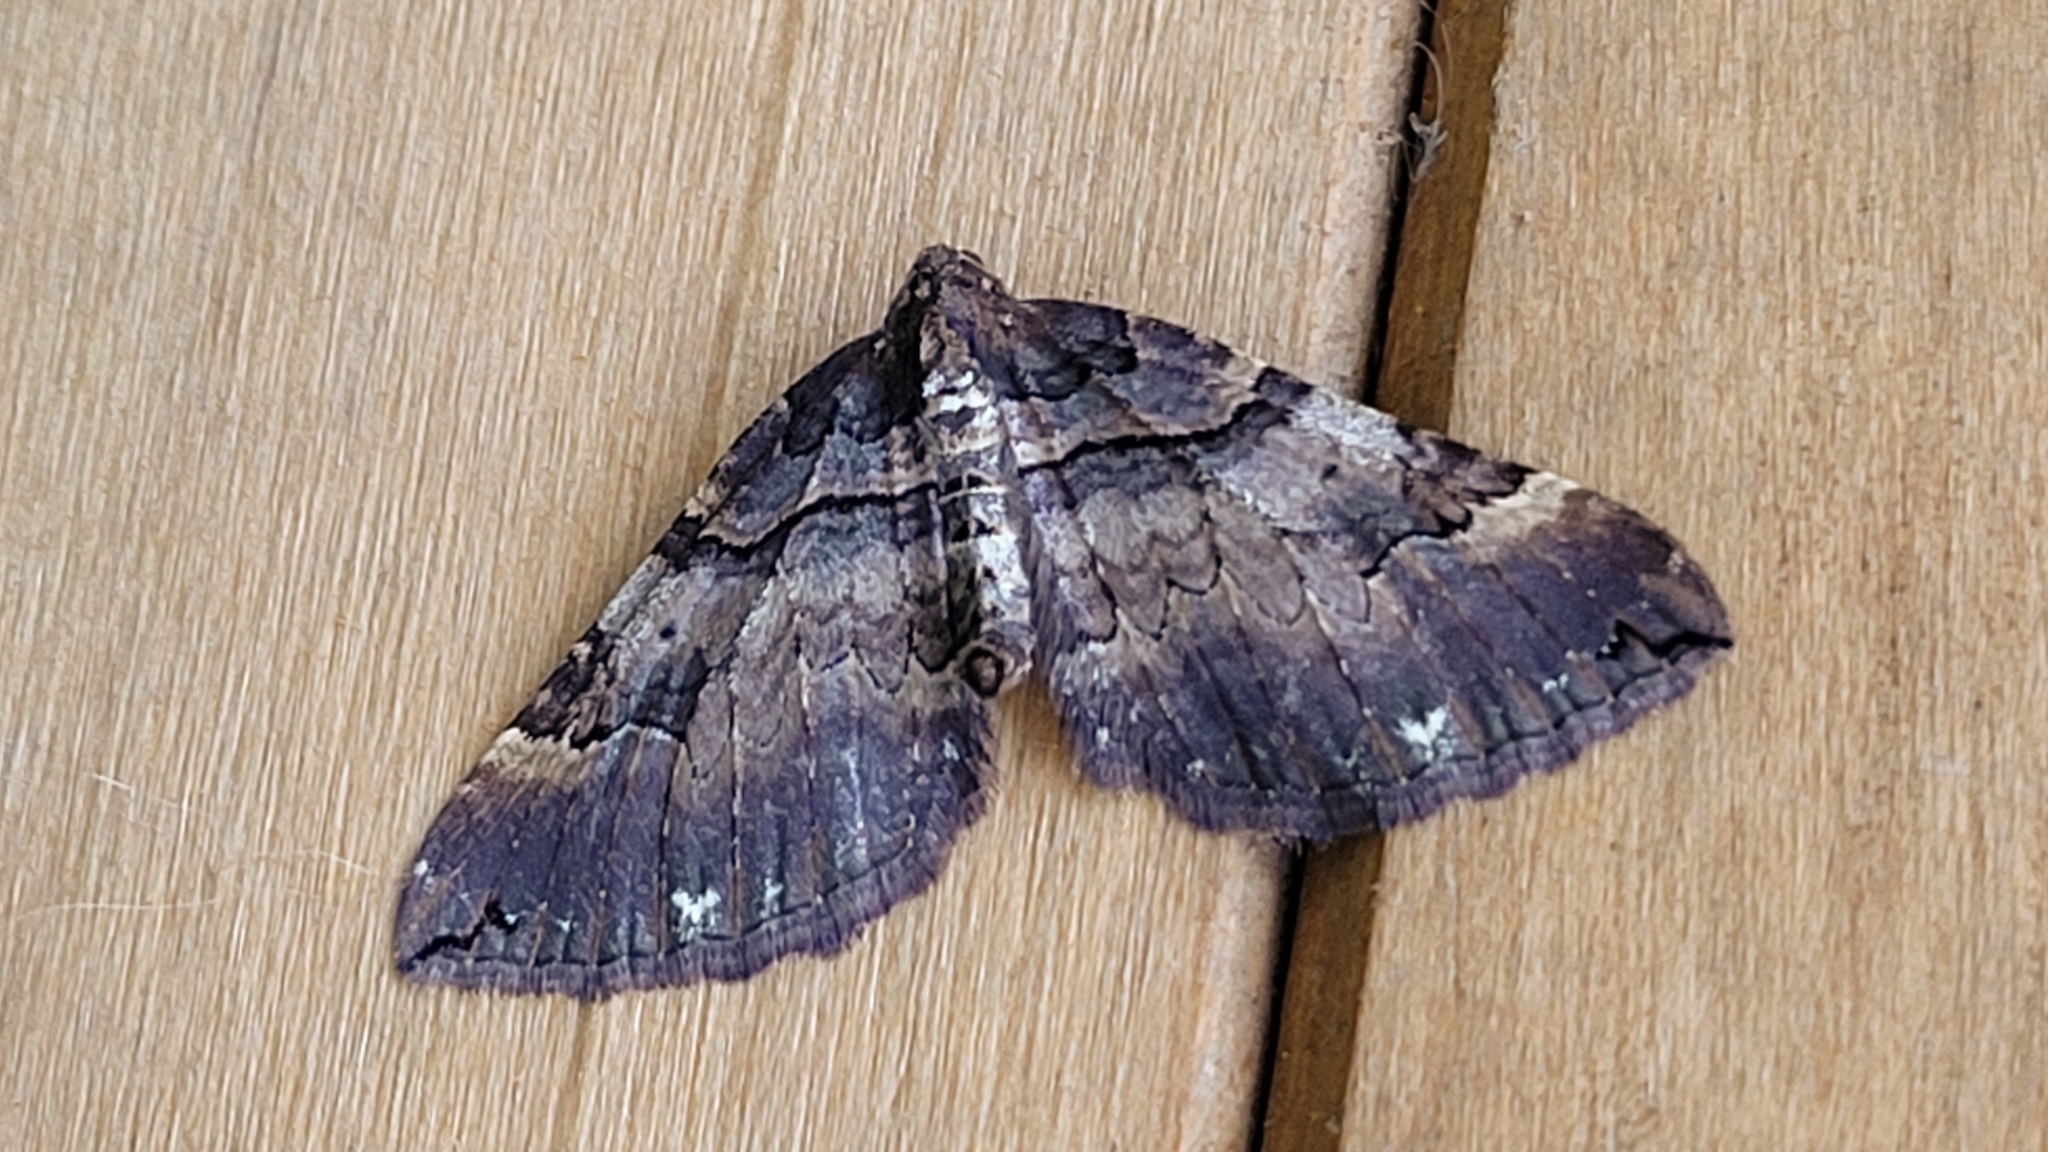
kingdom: Animalia
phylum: Arthropoda
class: Insecta
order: Lepidoptera
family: Geometridae
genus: Anticlea
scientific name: Anticlea badiata
